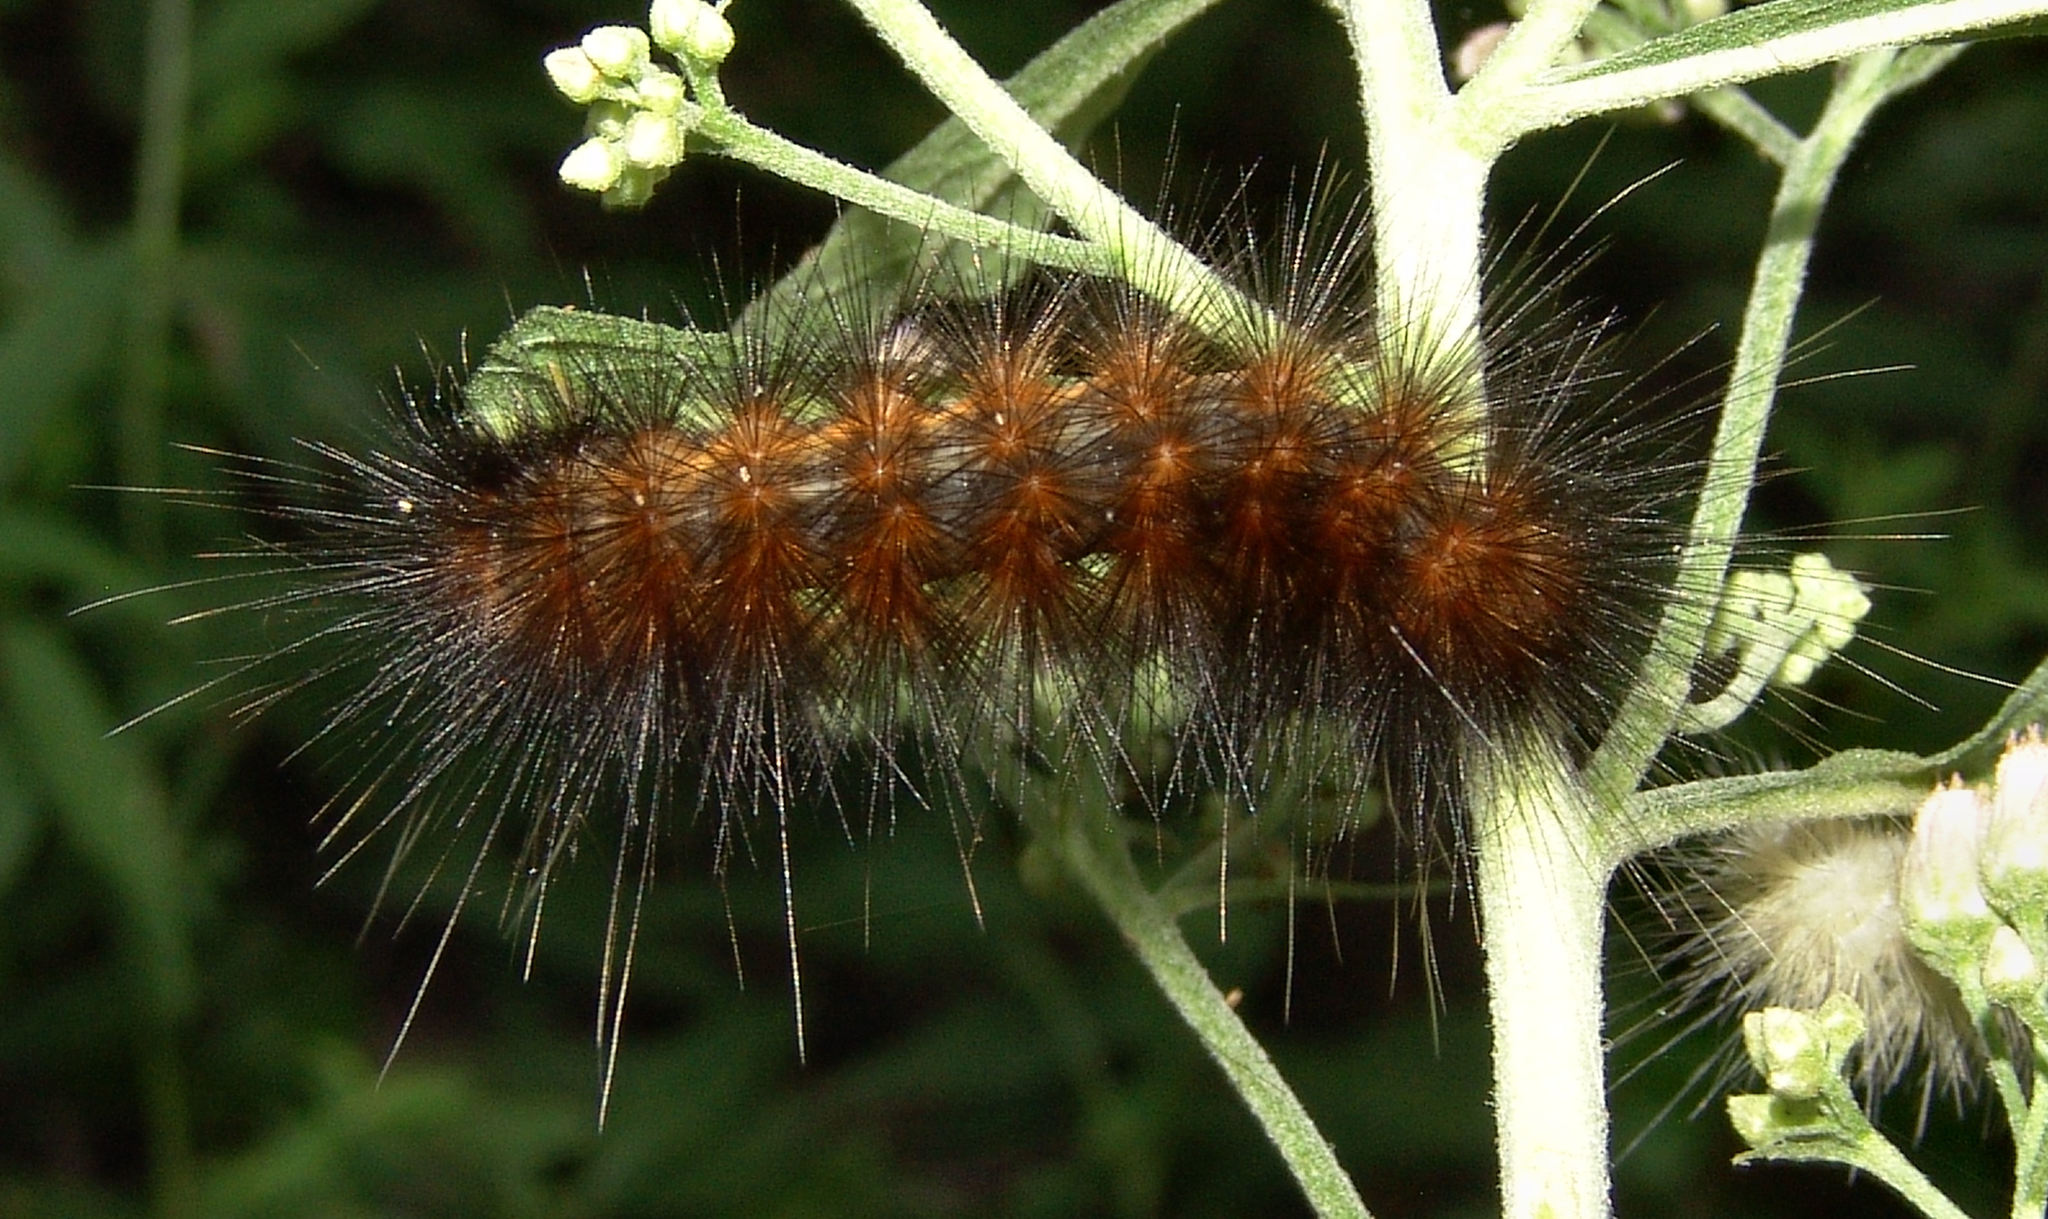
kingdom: Animalia
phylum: Arthropoda
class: Insecta
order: Lepidoptera
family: Erebidae
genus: Estigmene
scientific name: Estigmene acrea
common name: Salt marsh moth
